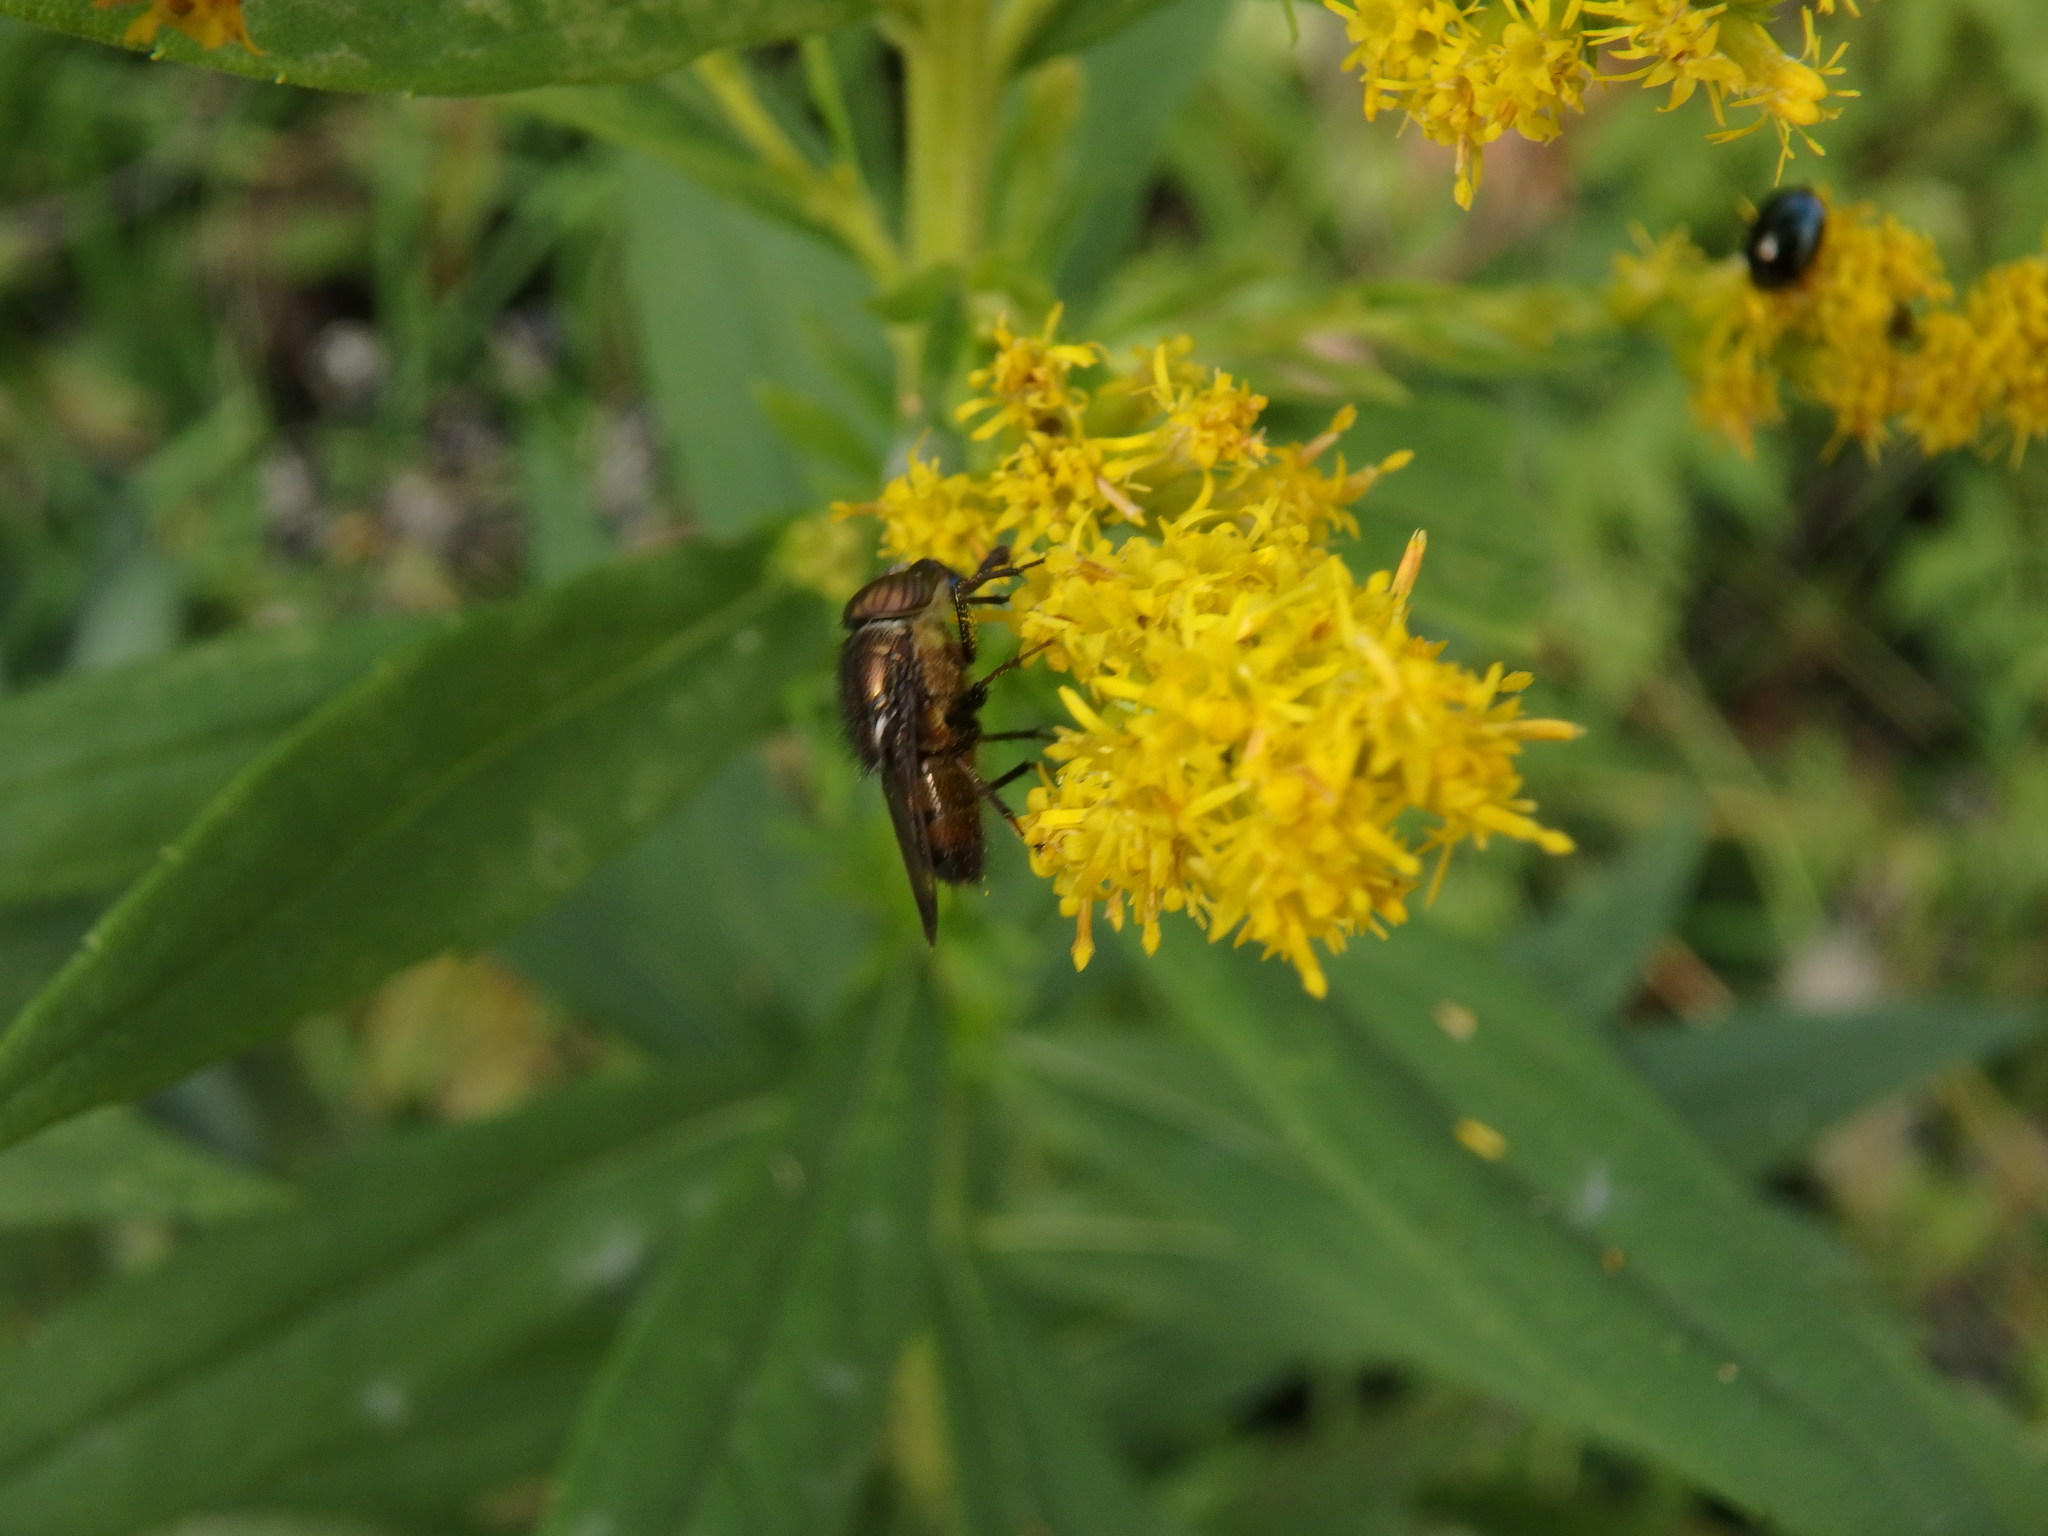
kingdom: Animalia
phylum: Arthropoda
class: Insecta
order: Diptera
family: Calliphoridae
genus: Rhinia
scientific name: Rhinia obsoleta
